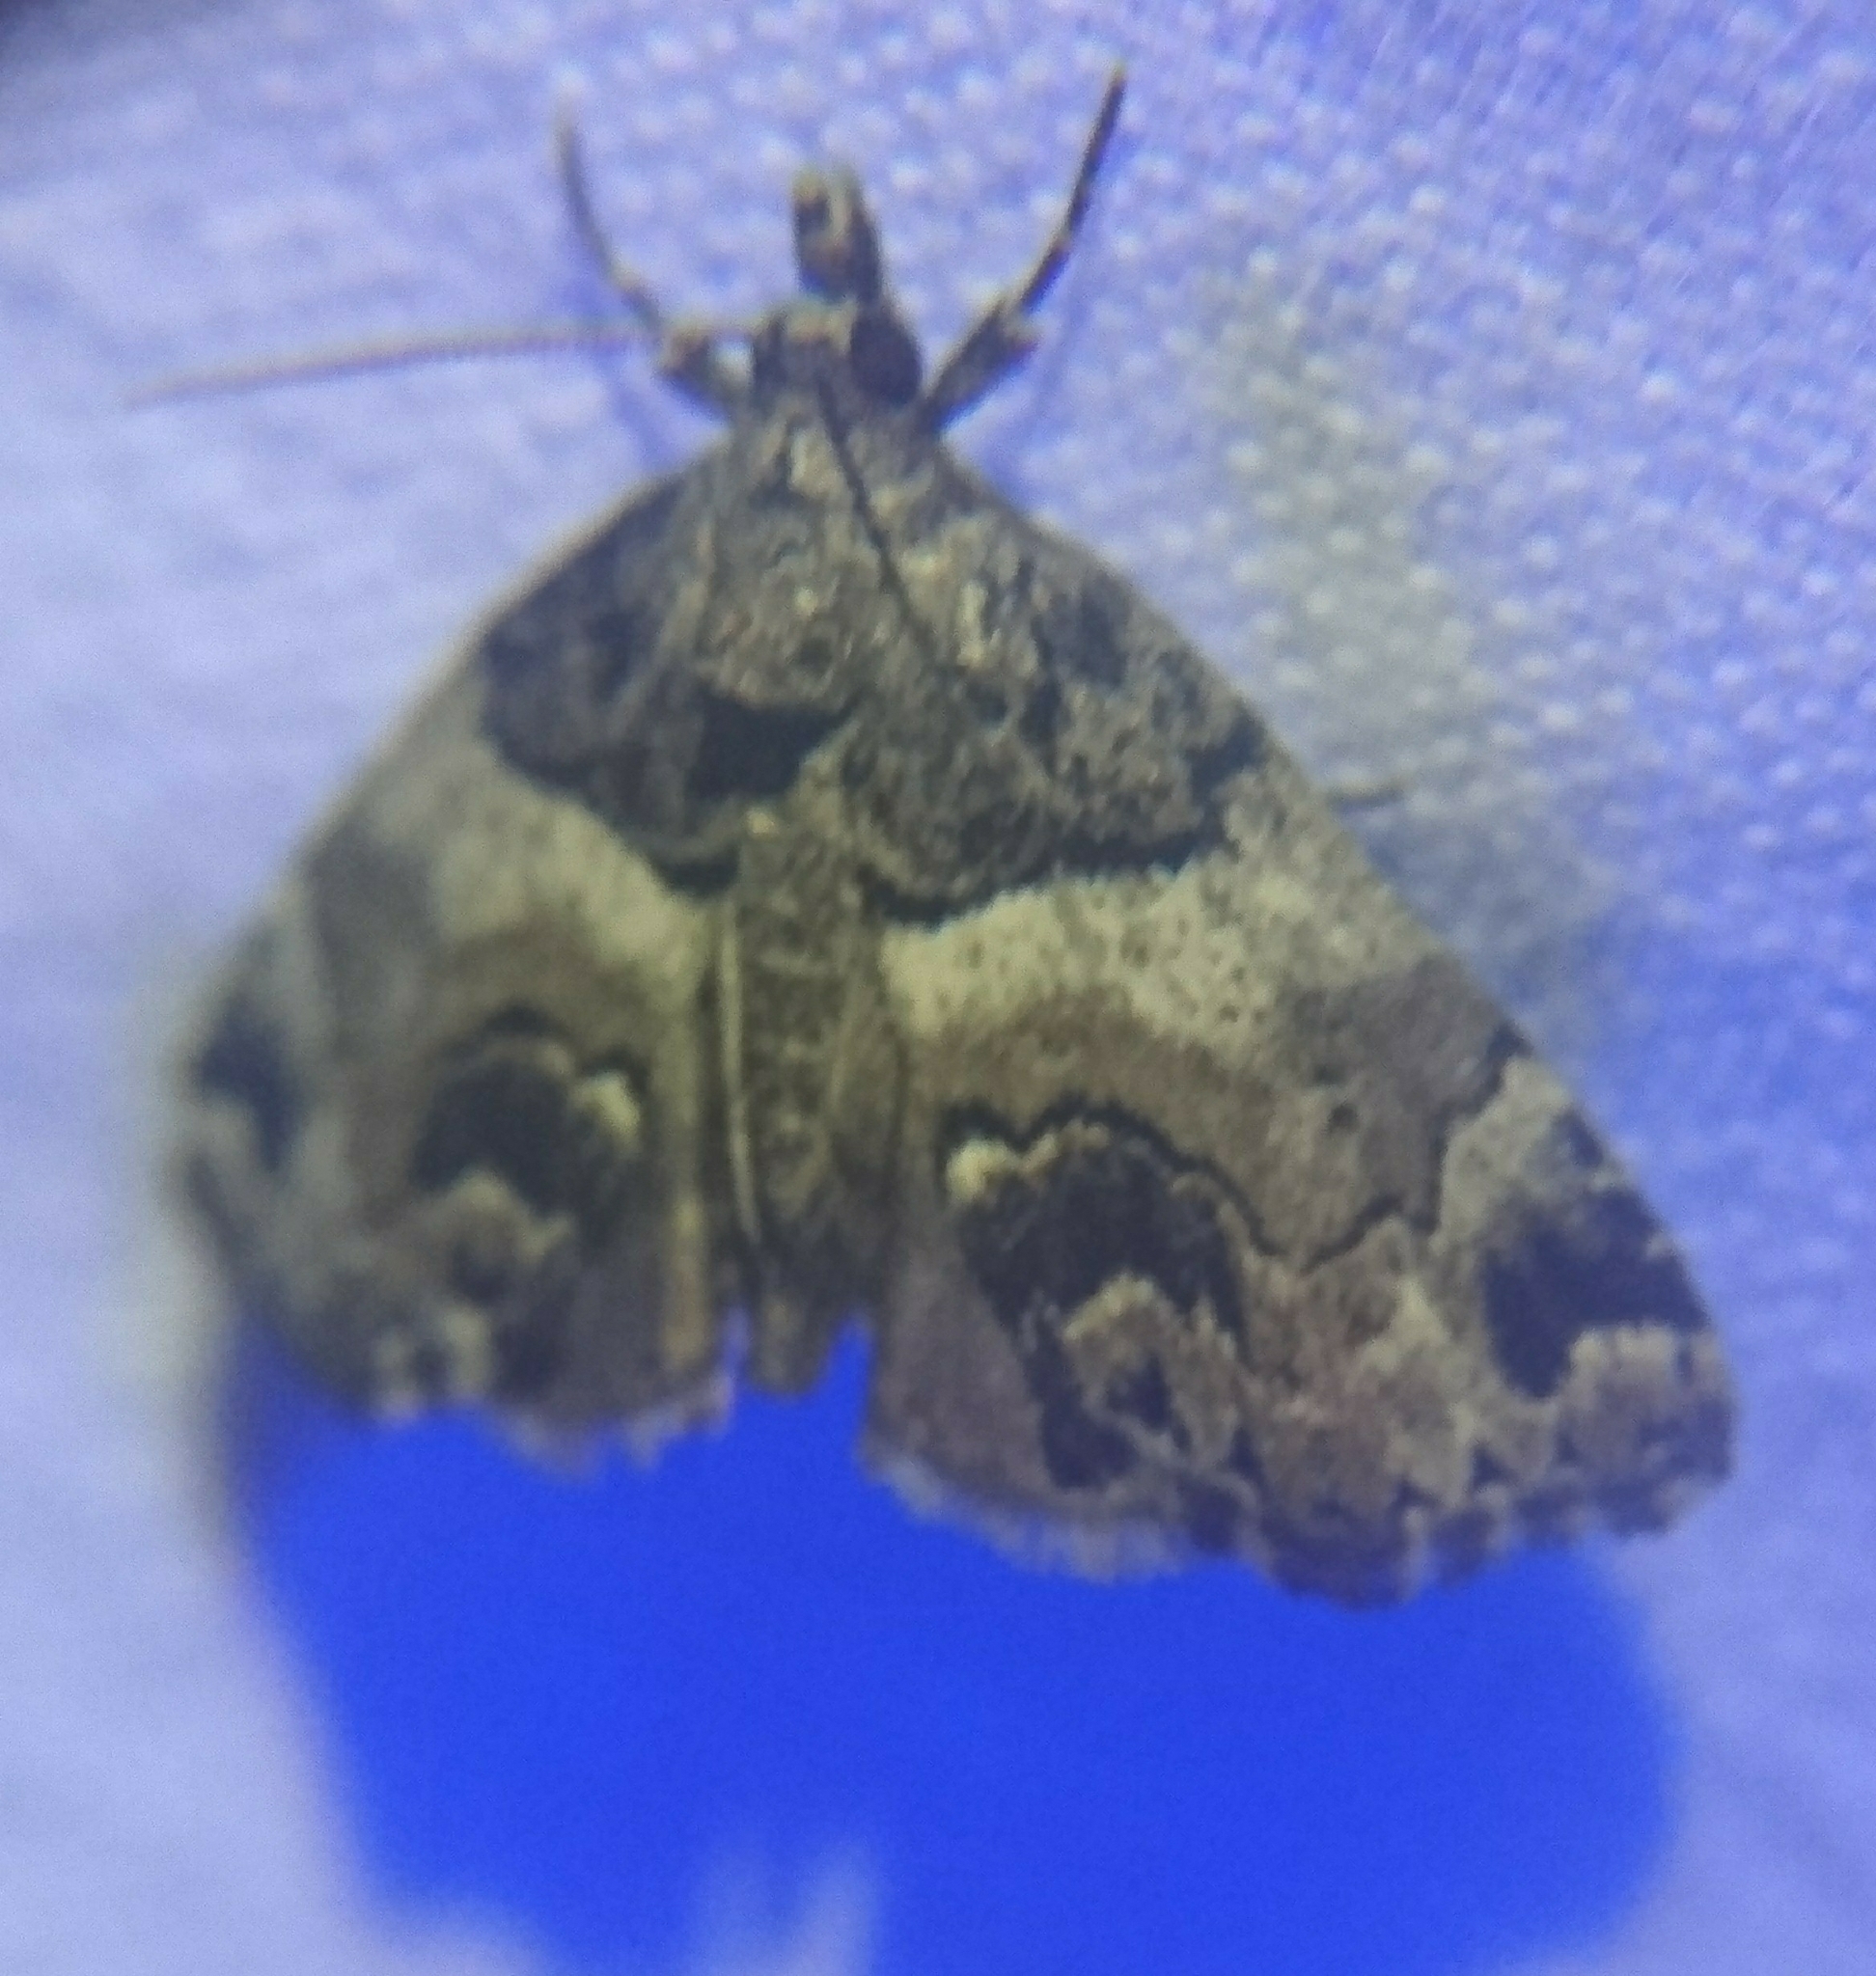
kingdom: Animalia
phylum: Arthropoda
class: Insecta
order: Lepidoptera
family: Erebidae
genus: Cutina
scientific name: Cutina distincta
